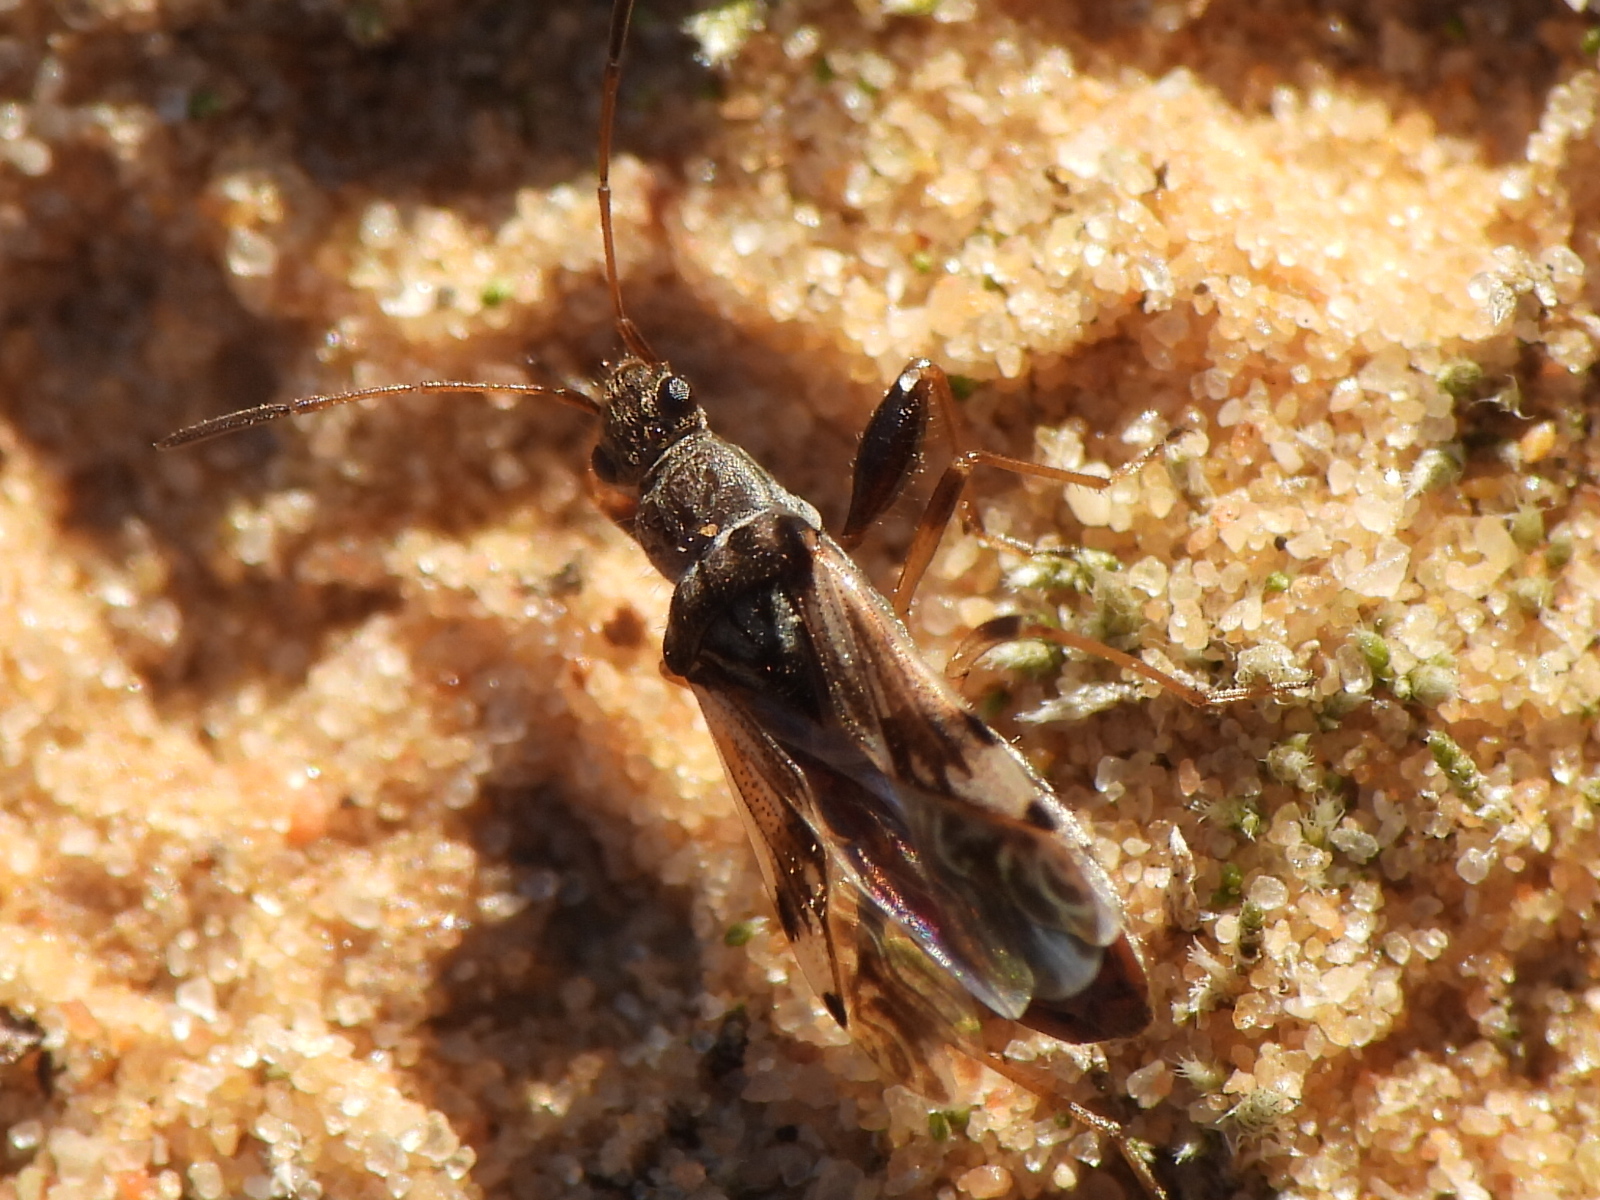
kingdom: Animalia
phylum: Arthropoda
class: Insecta
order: Hemiptera
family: Rhyparochromidae
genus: Neopamera
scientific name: Neopamera bilobata
